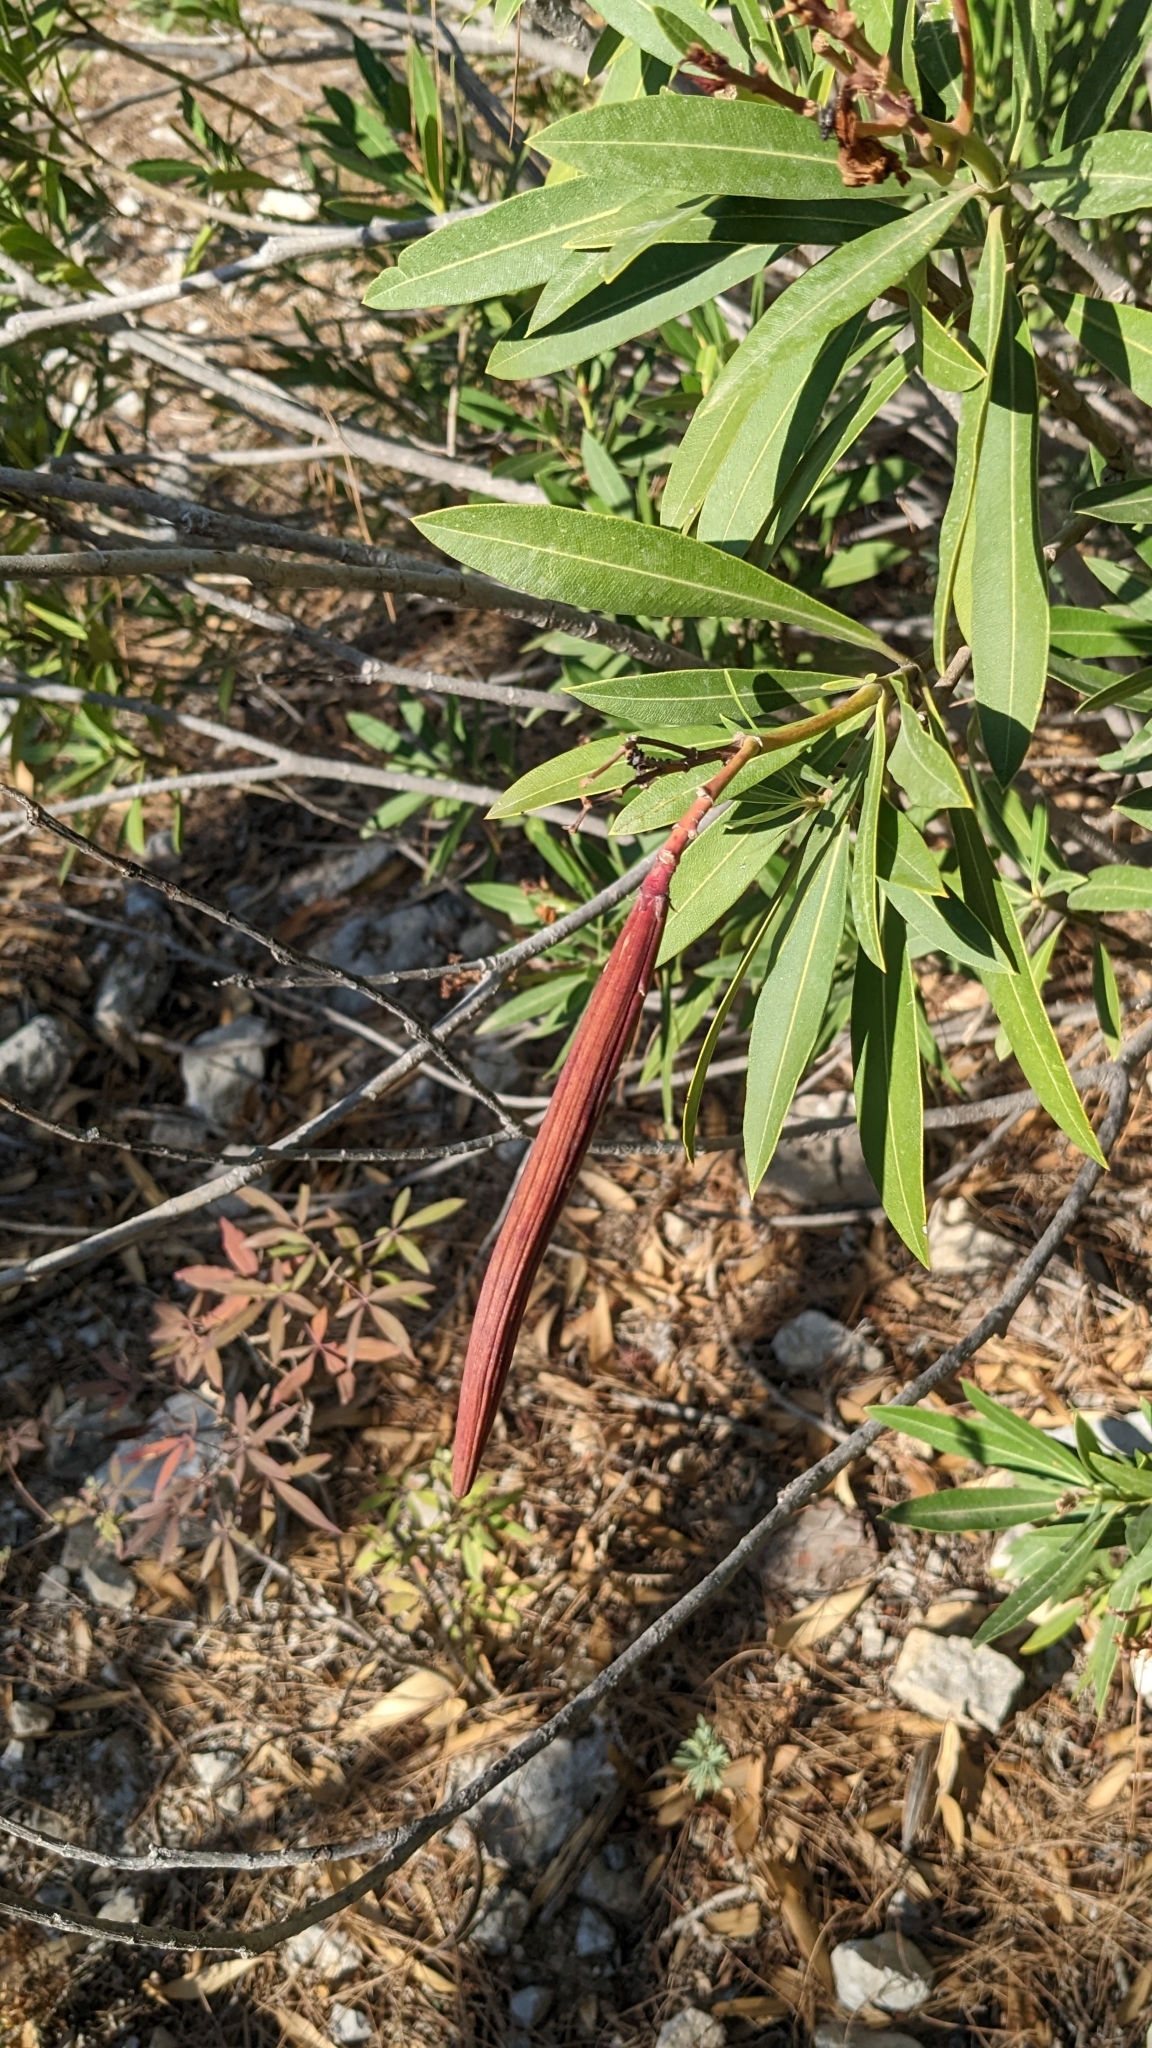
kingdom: Plantae
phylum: Tracheophyta
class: Magnoliopsida
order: Gentianales
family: Apocynaceae
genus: Nerium
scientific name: Nerium oleander
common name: Oleander
